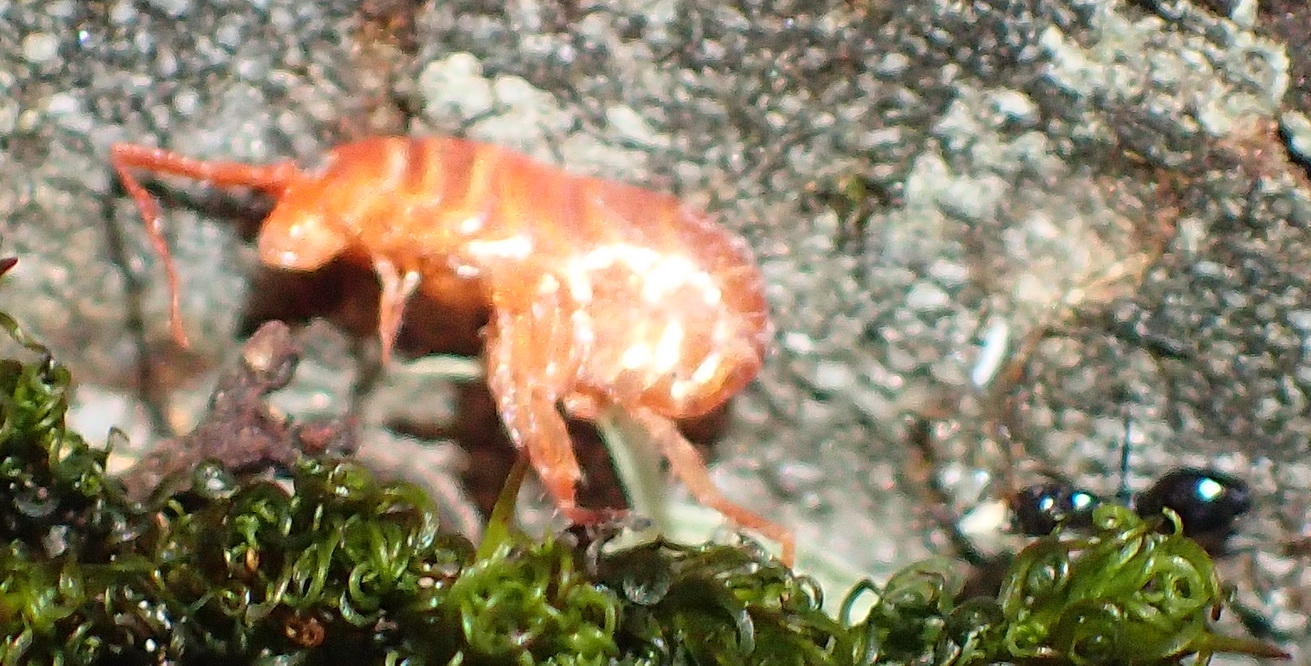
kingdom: Animalia
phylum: Arthropoda
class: Insecta
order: Hymenoptera
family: Formicidae
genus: Lepisiota
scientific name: Lepisiota capensis
